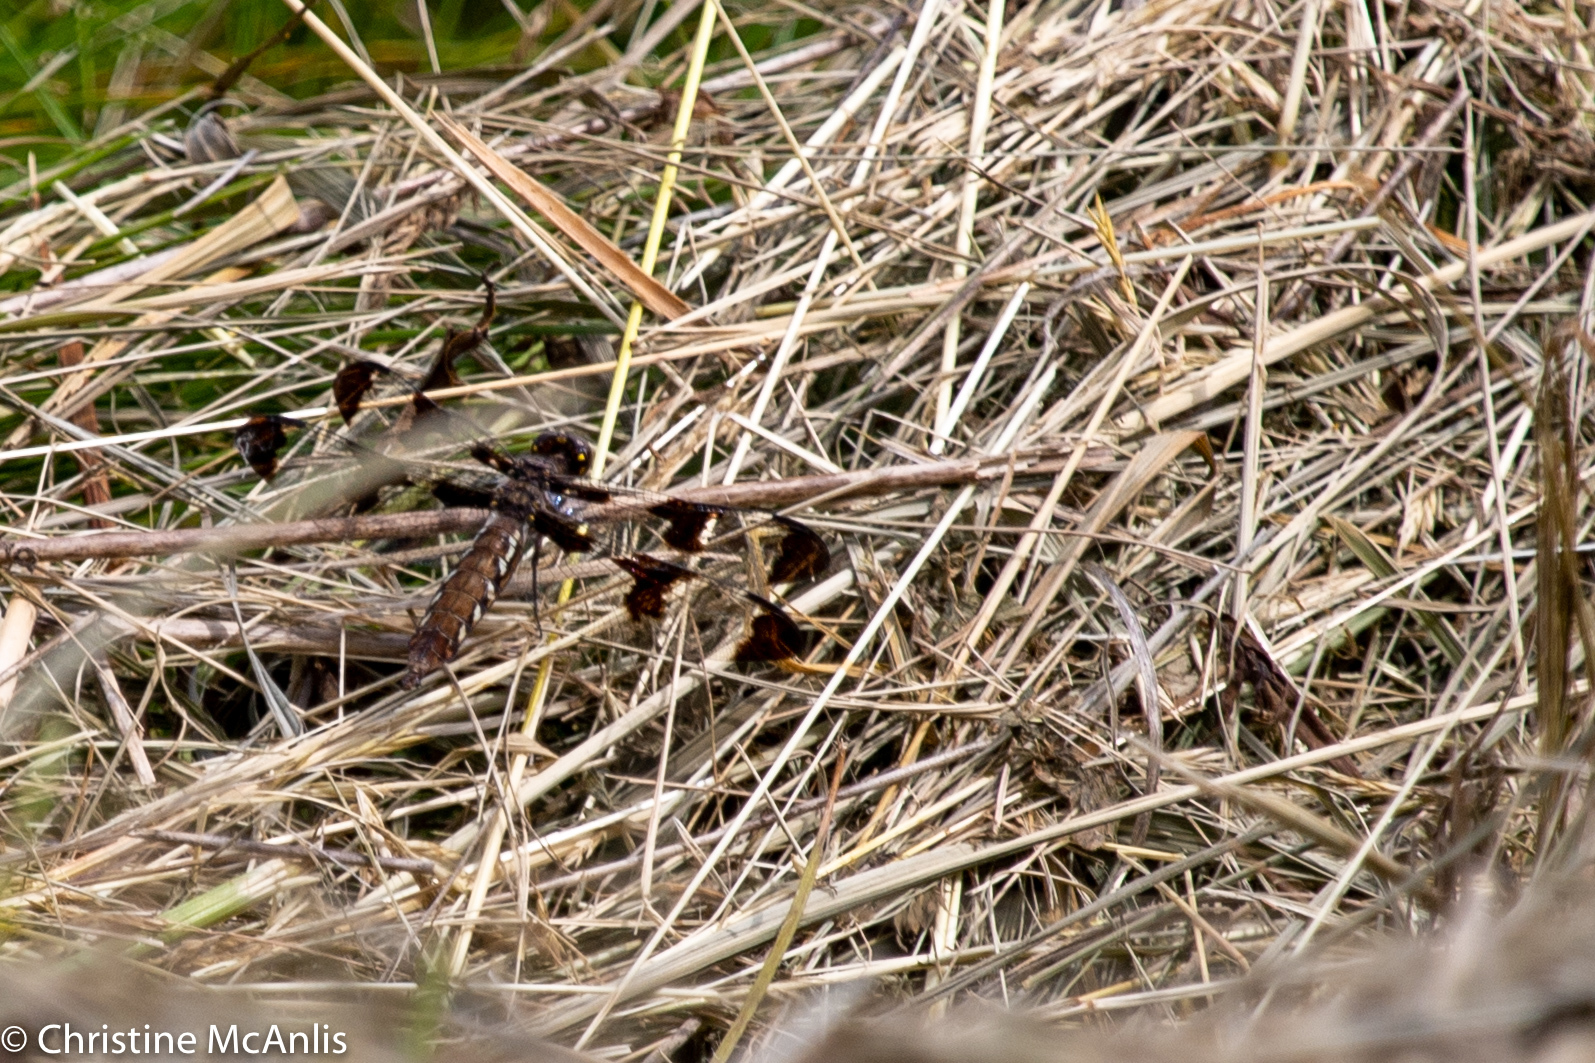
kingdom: Animalia
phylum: Arthropoda
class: Insecta
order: Odonata
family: Libellulidae
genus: Plathemis
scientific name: Plathemis lydia
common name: Common whitetail
